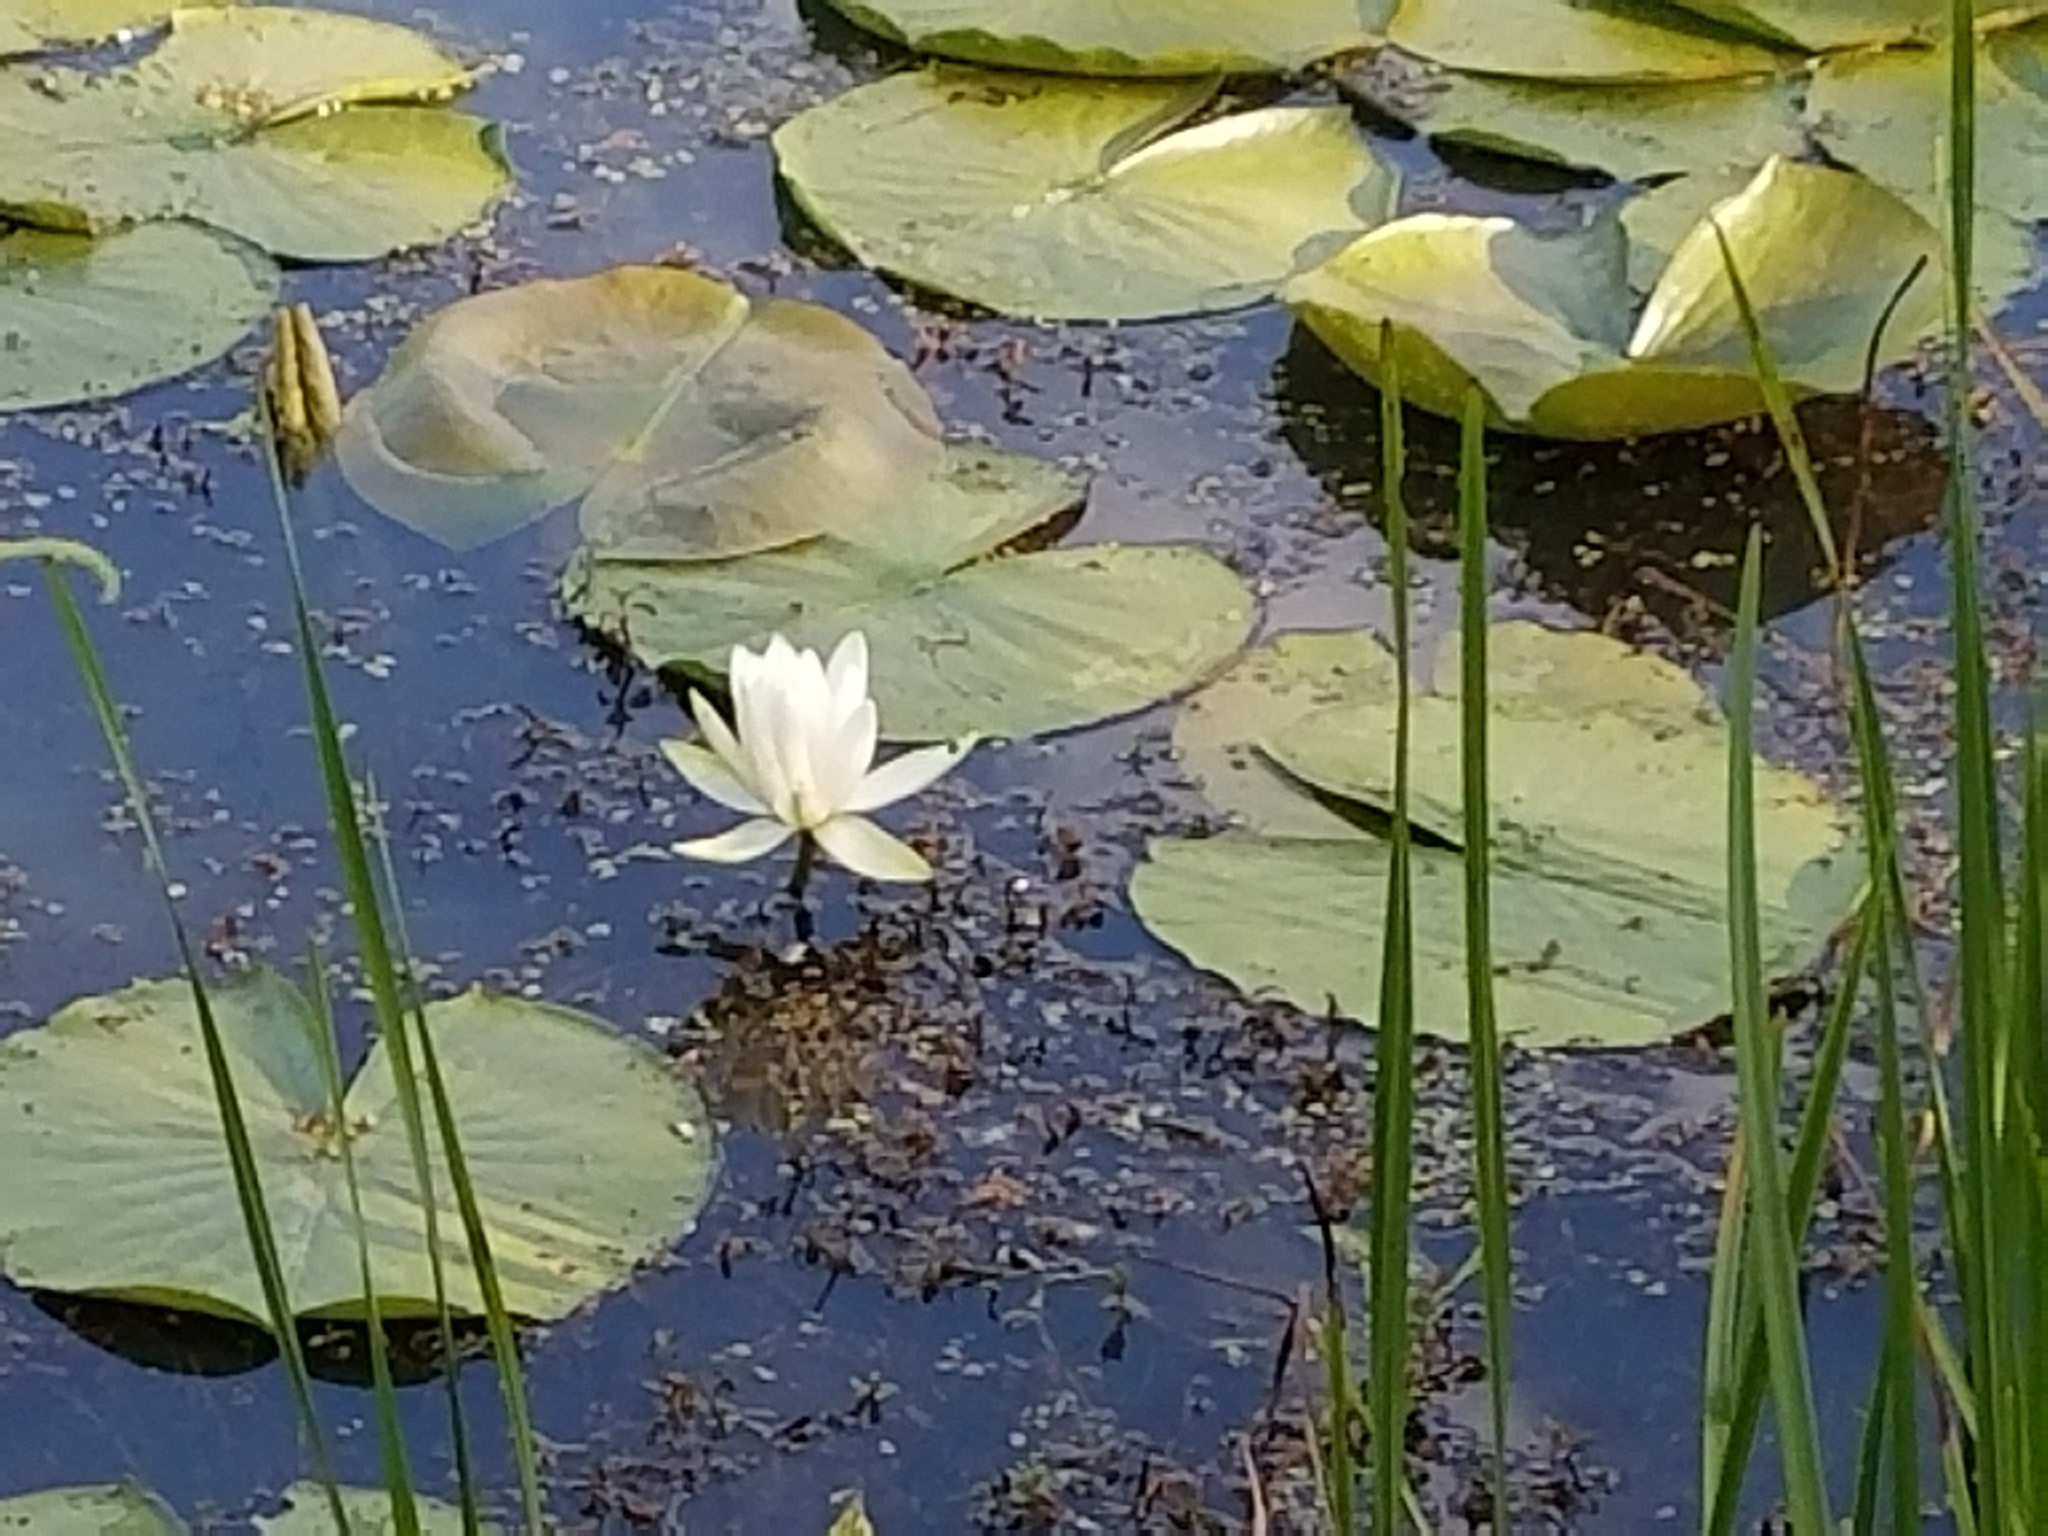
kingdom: Plantae
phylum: Tracheophyta
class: Magnoliopsida
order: Nymphaeales
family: Nymphaeaceae
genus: Nymphaea
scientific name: Nymphaea odorata
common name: Fragrant water-lily
